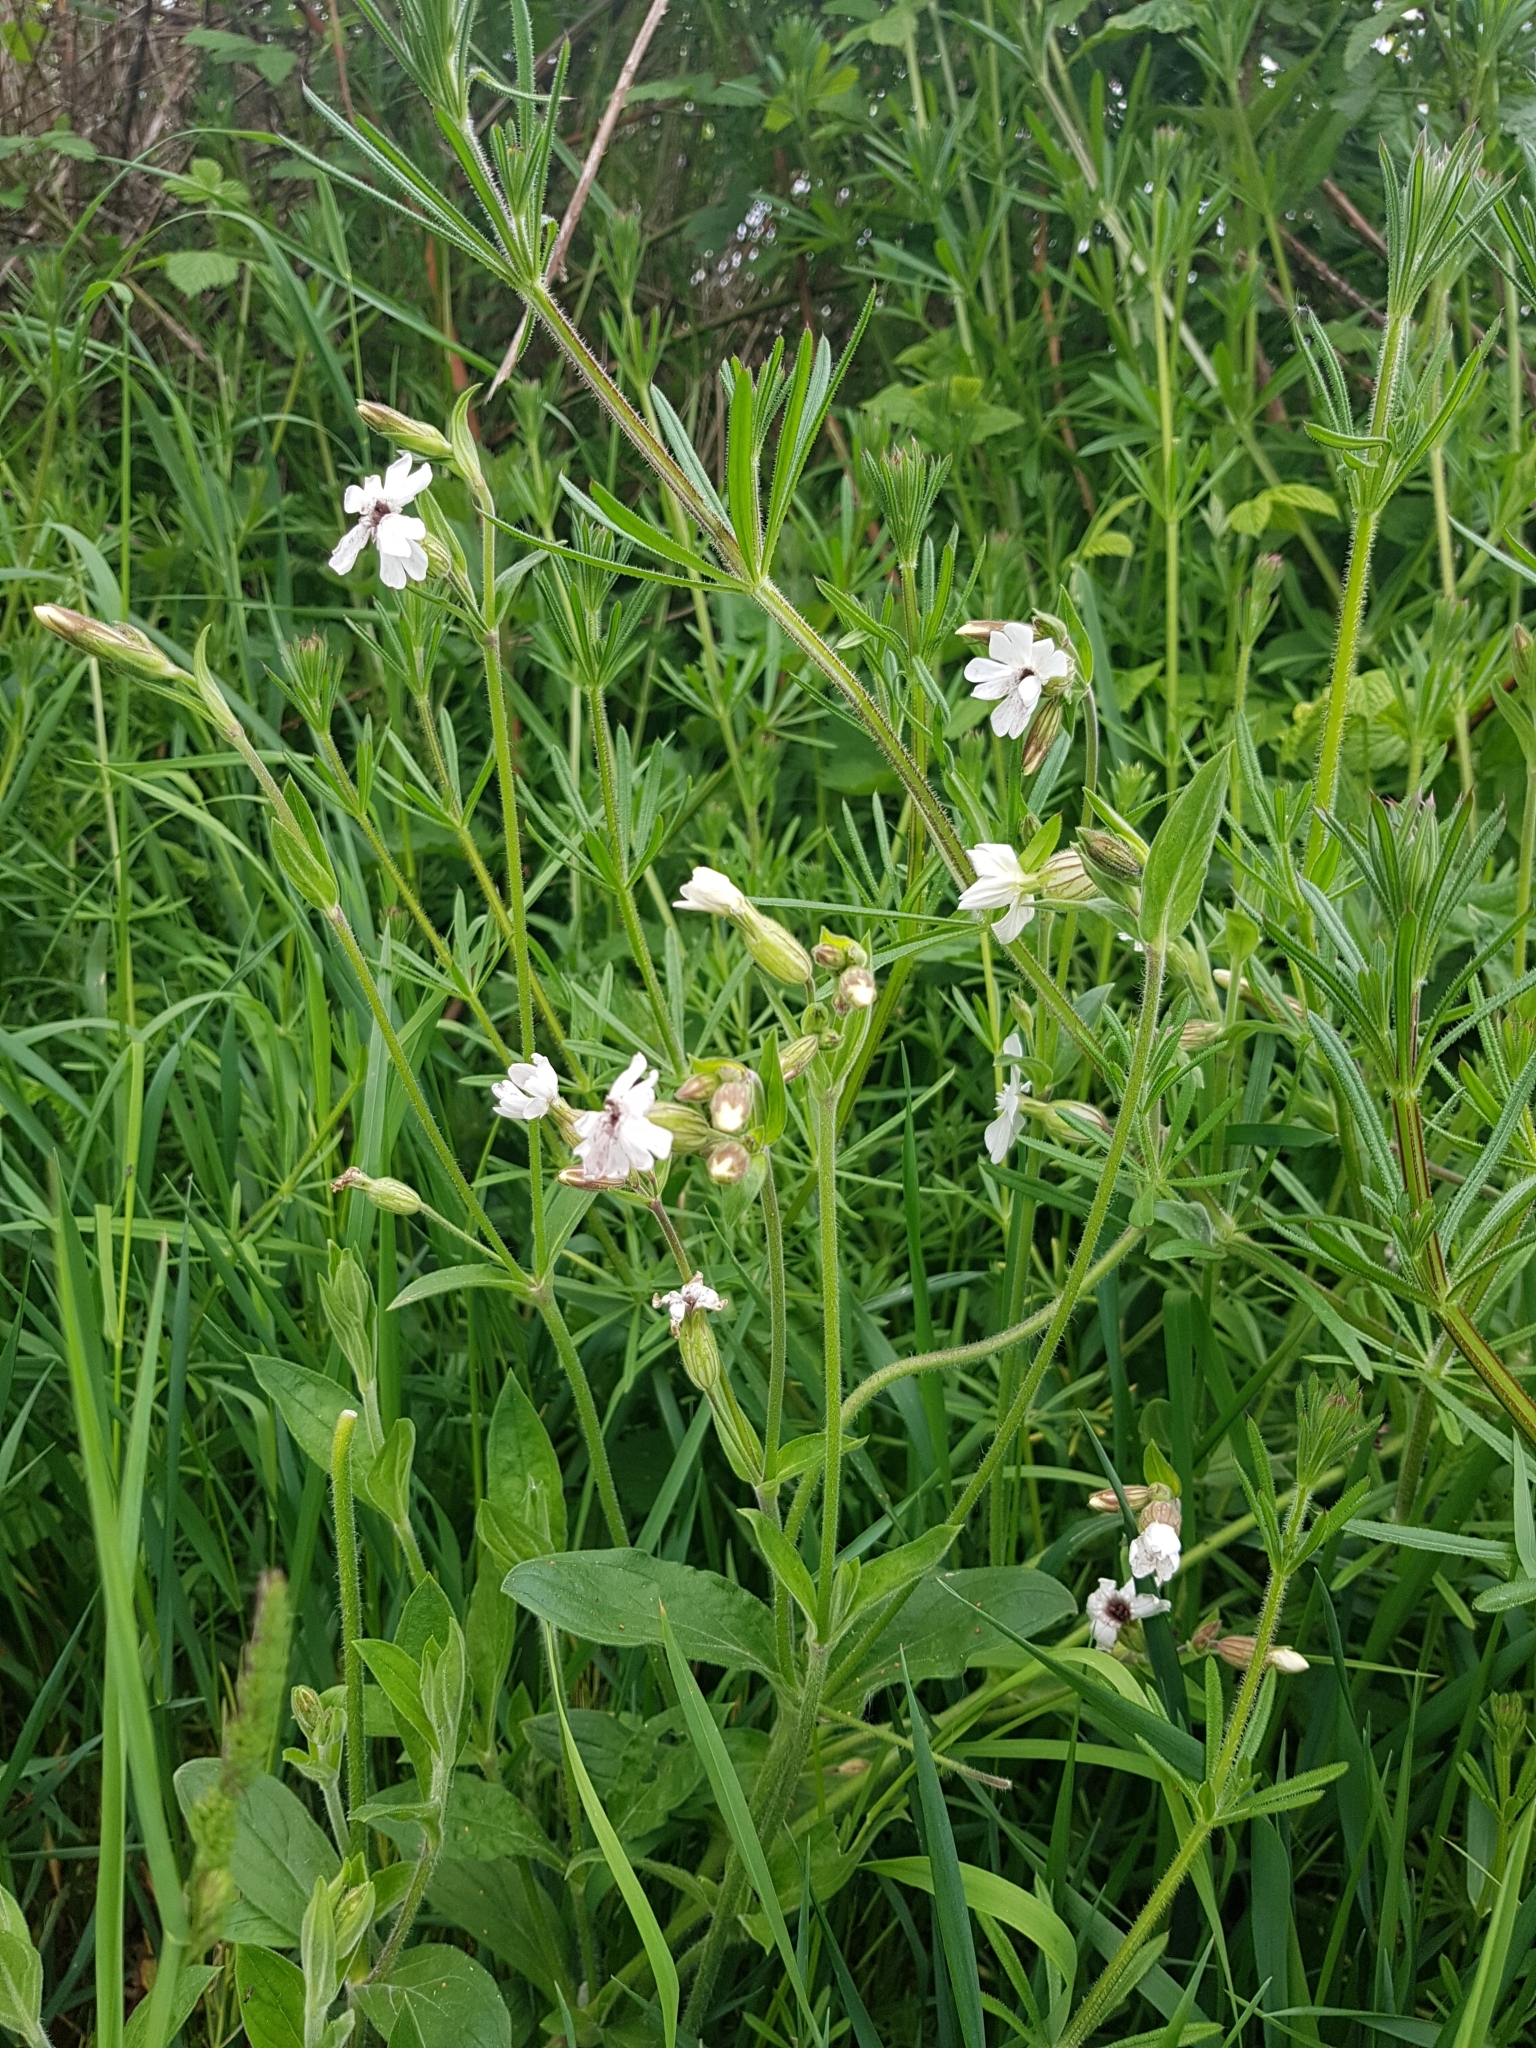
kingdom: Plantae
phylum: Tracheophyta
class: Magnoliopsida
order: Caryophyllales
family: Caryophyllaceae
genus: Silene
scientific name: Silene latifolia
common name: White campion
